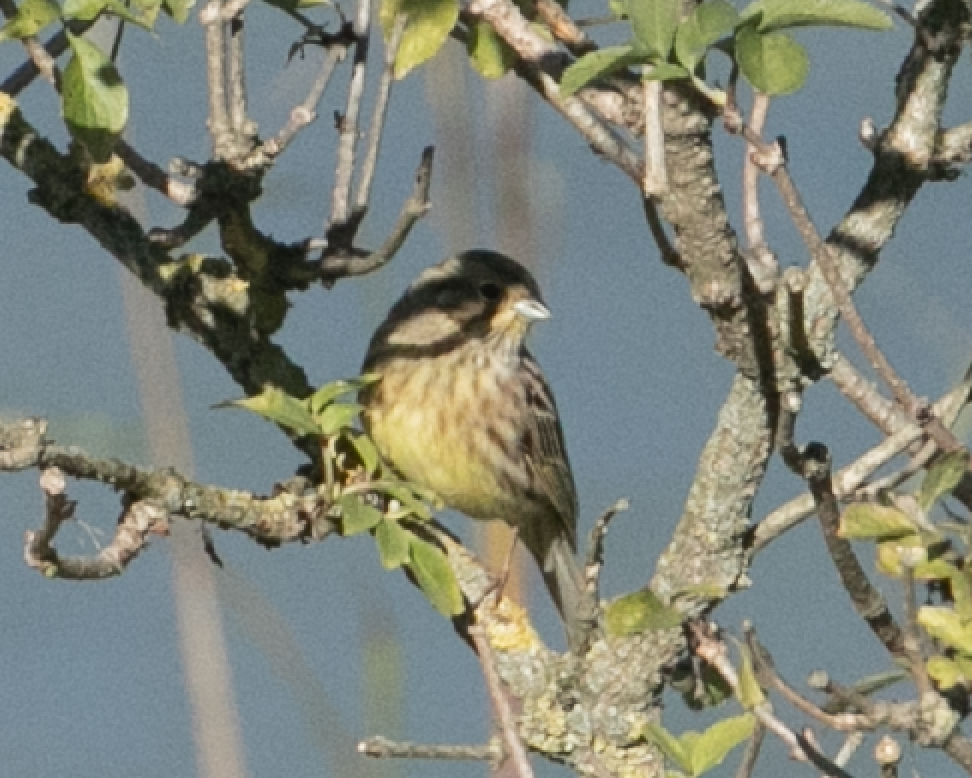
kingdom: Animalia
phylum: Chordata
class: Aves
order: Passeriformes
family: Emberizidae
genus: Emberiza
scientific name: Emberiza citrinella
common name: Yellowhammer
